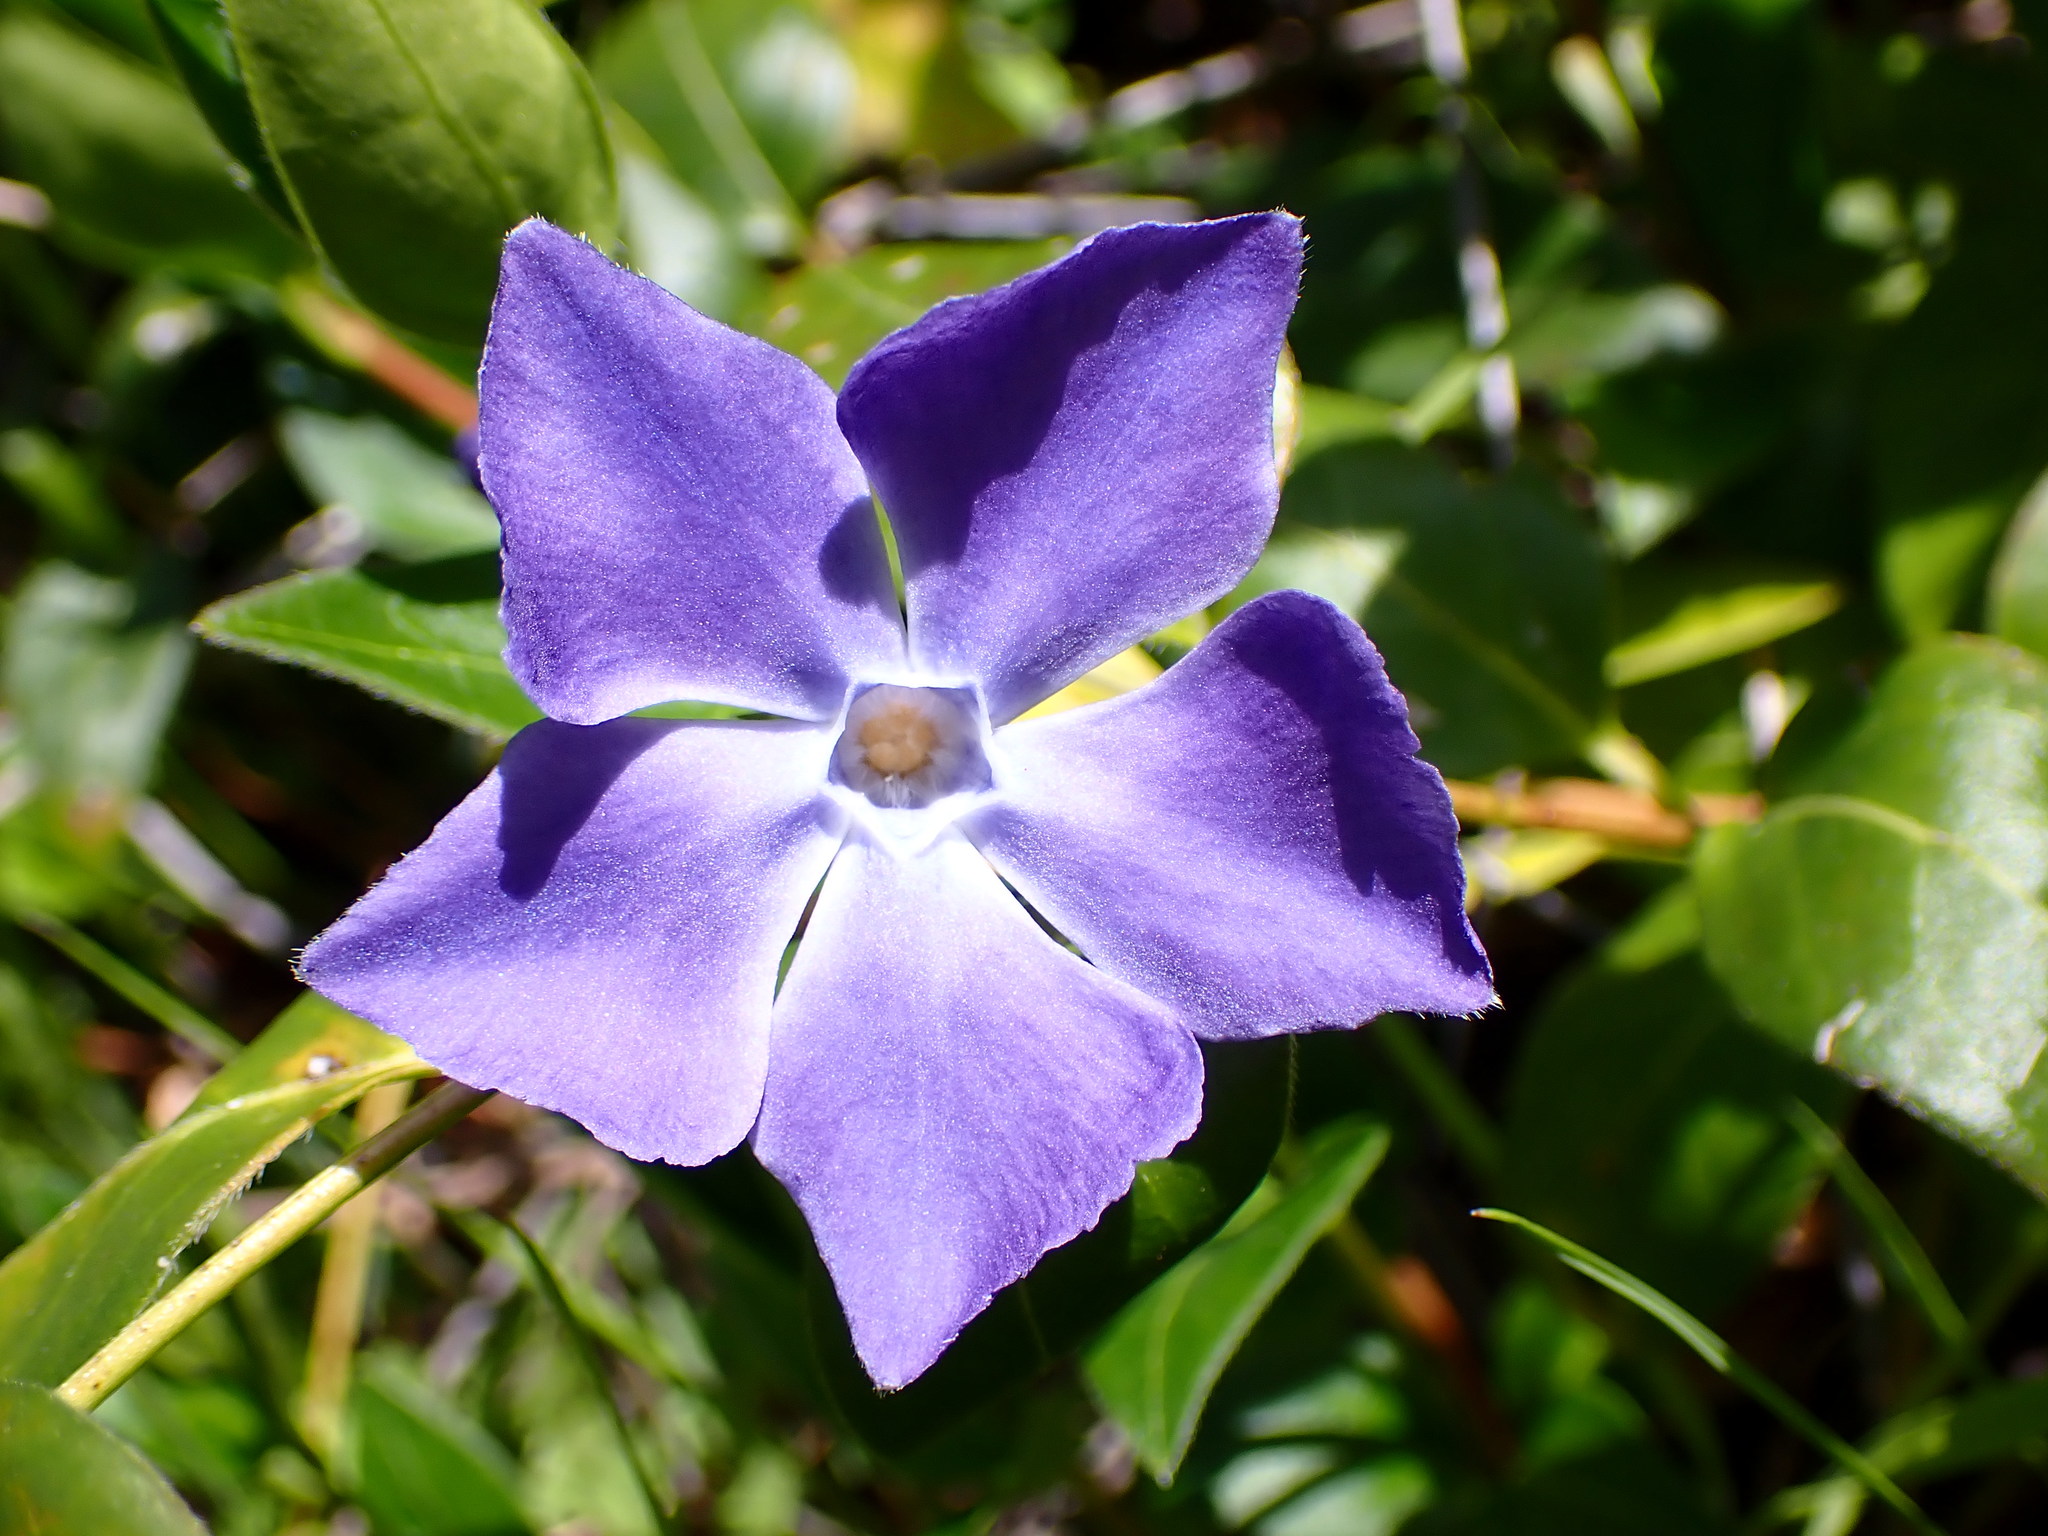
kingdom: Plantae
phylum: Tracheophyta
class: Magnoliopsida
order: Gentianales
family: Apocynaceae
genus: Vinca
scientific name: Vinca major
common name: Greater periwinkle
